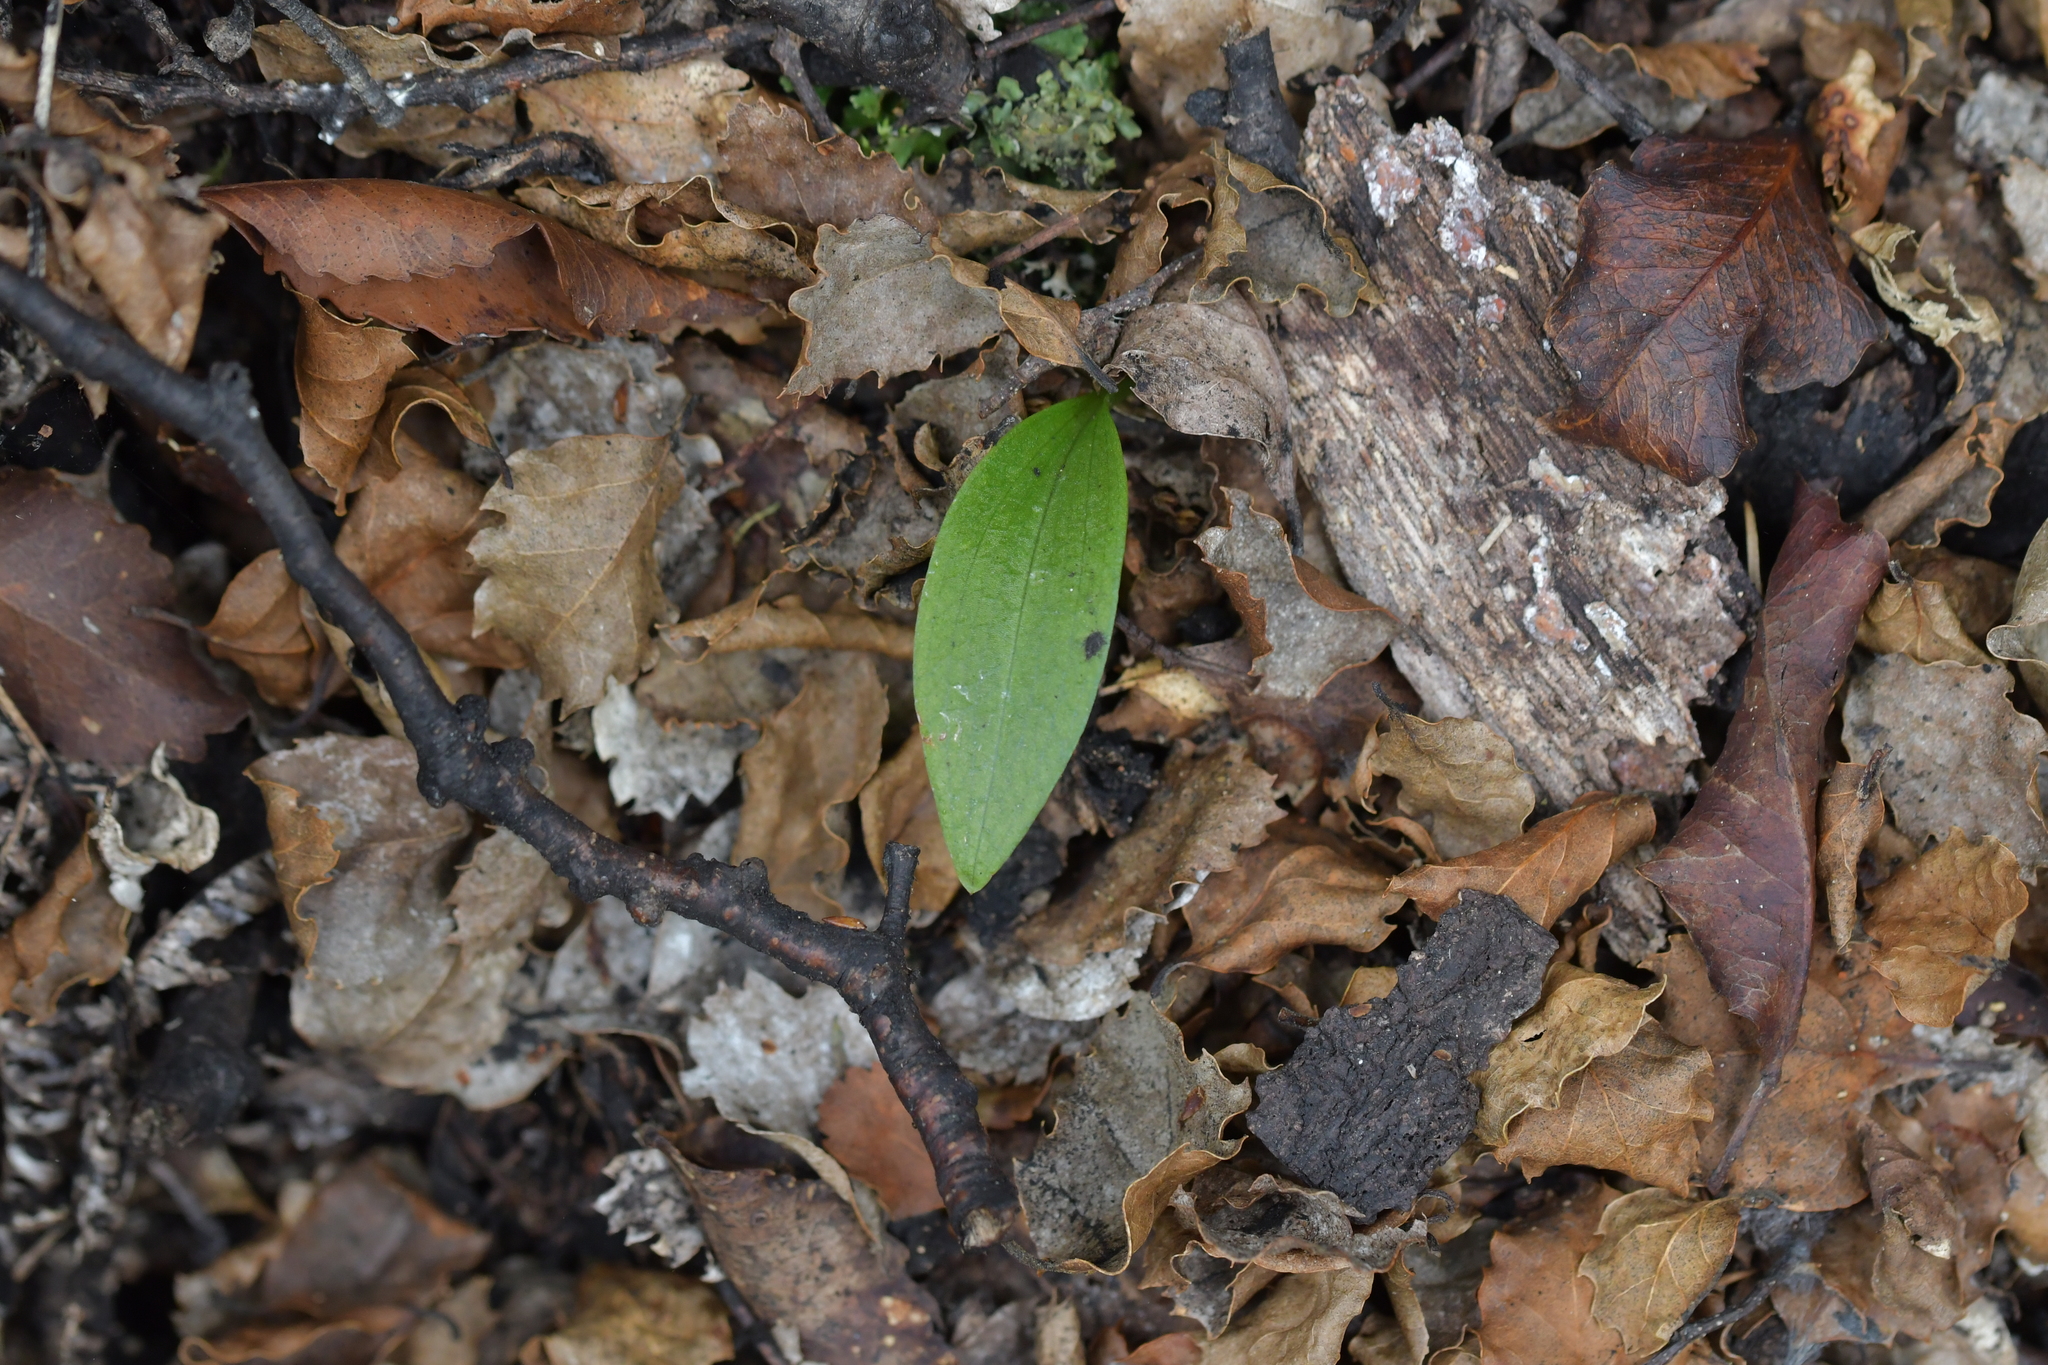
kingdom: Plantae
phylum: Tracheophyta
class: Liliopsida
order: Asparagales
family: Orchidaceae
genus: Chiloglottis
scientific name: Chiloglottis cornuta
